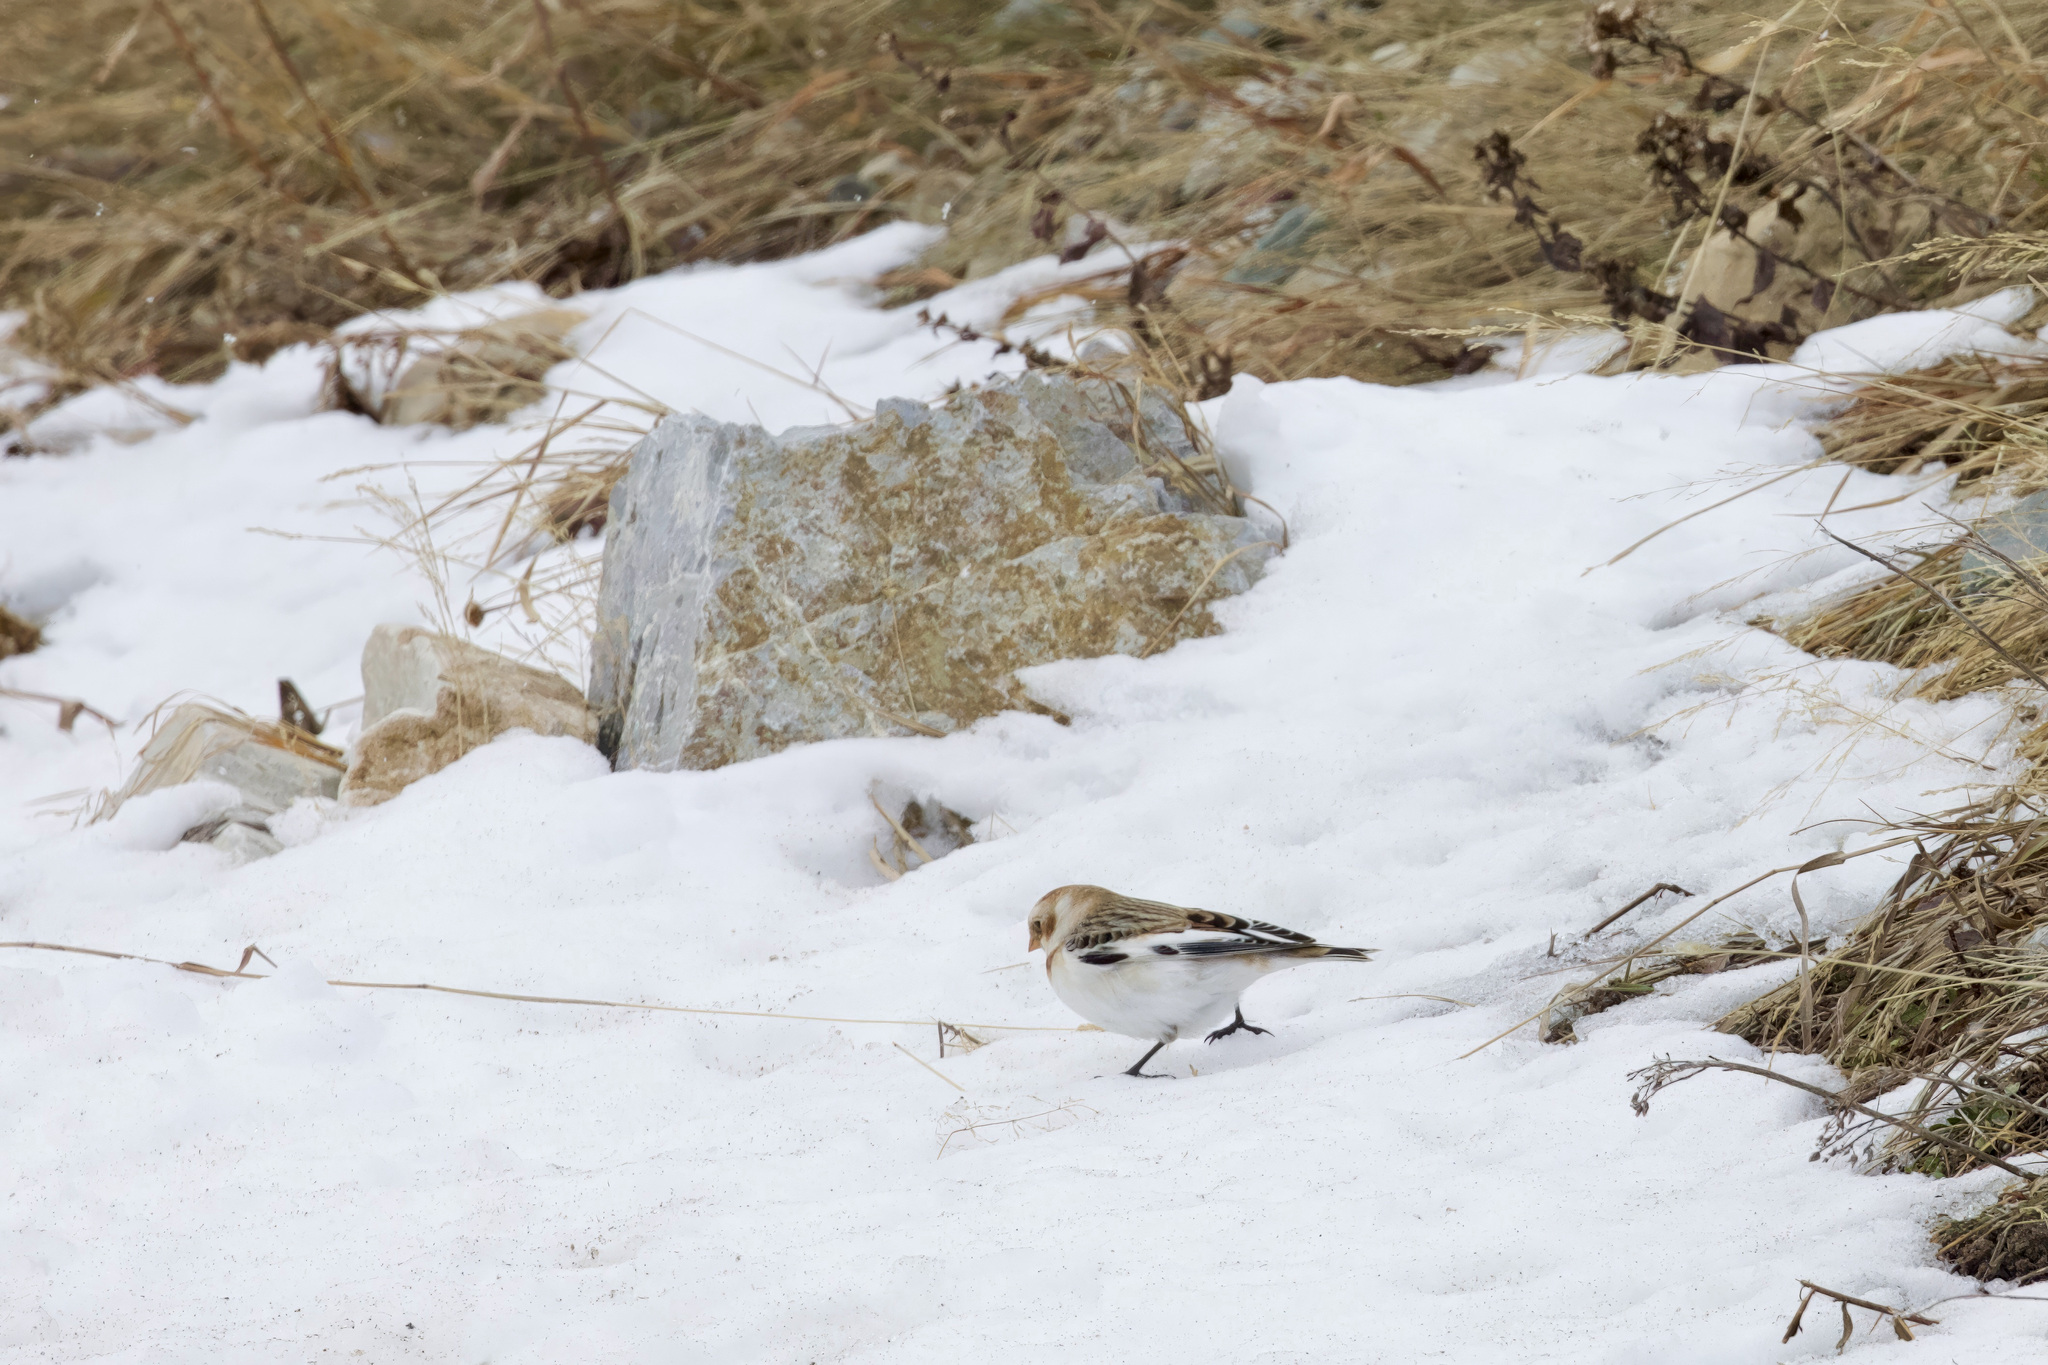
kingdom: Animalia
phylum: Chordata
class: Aves
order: Passeriformes
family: Calcariidae
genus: Plectrophenax
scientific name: Plectrophenax nivalis
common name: Snow bunting
